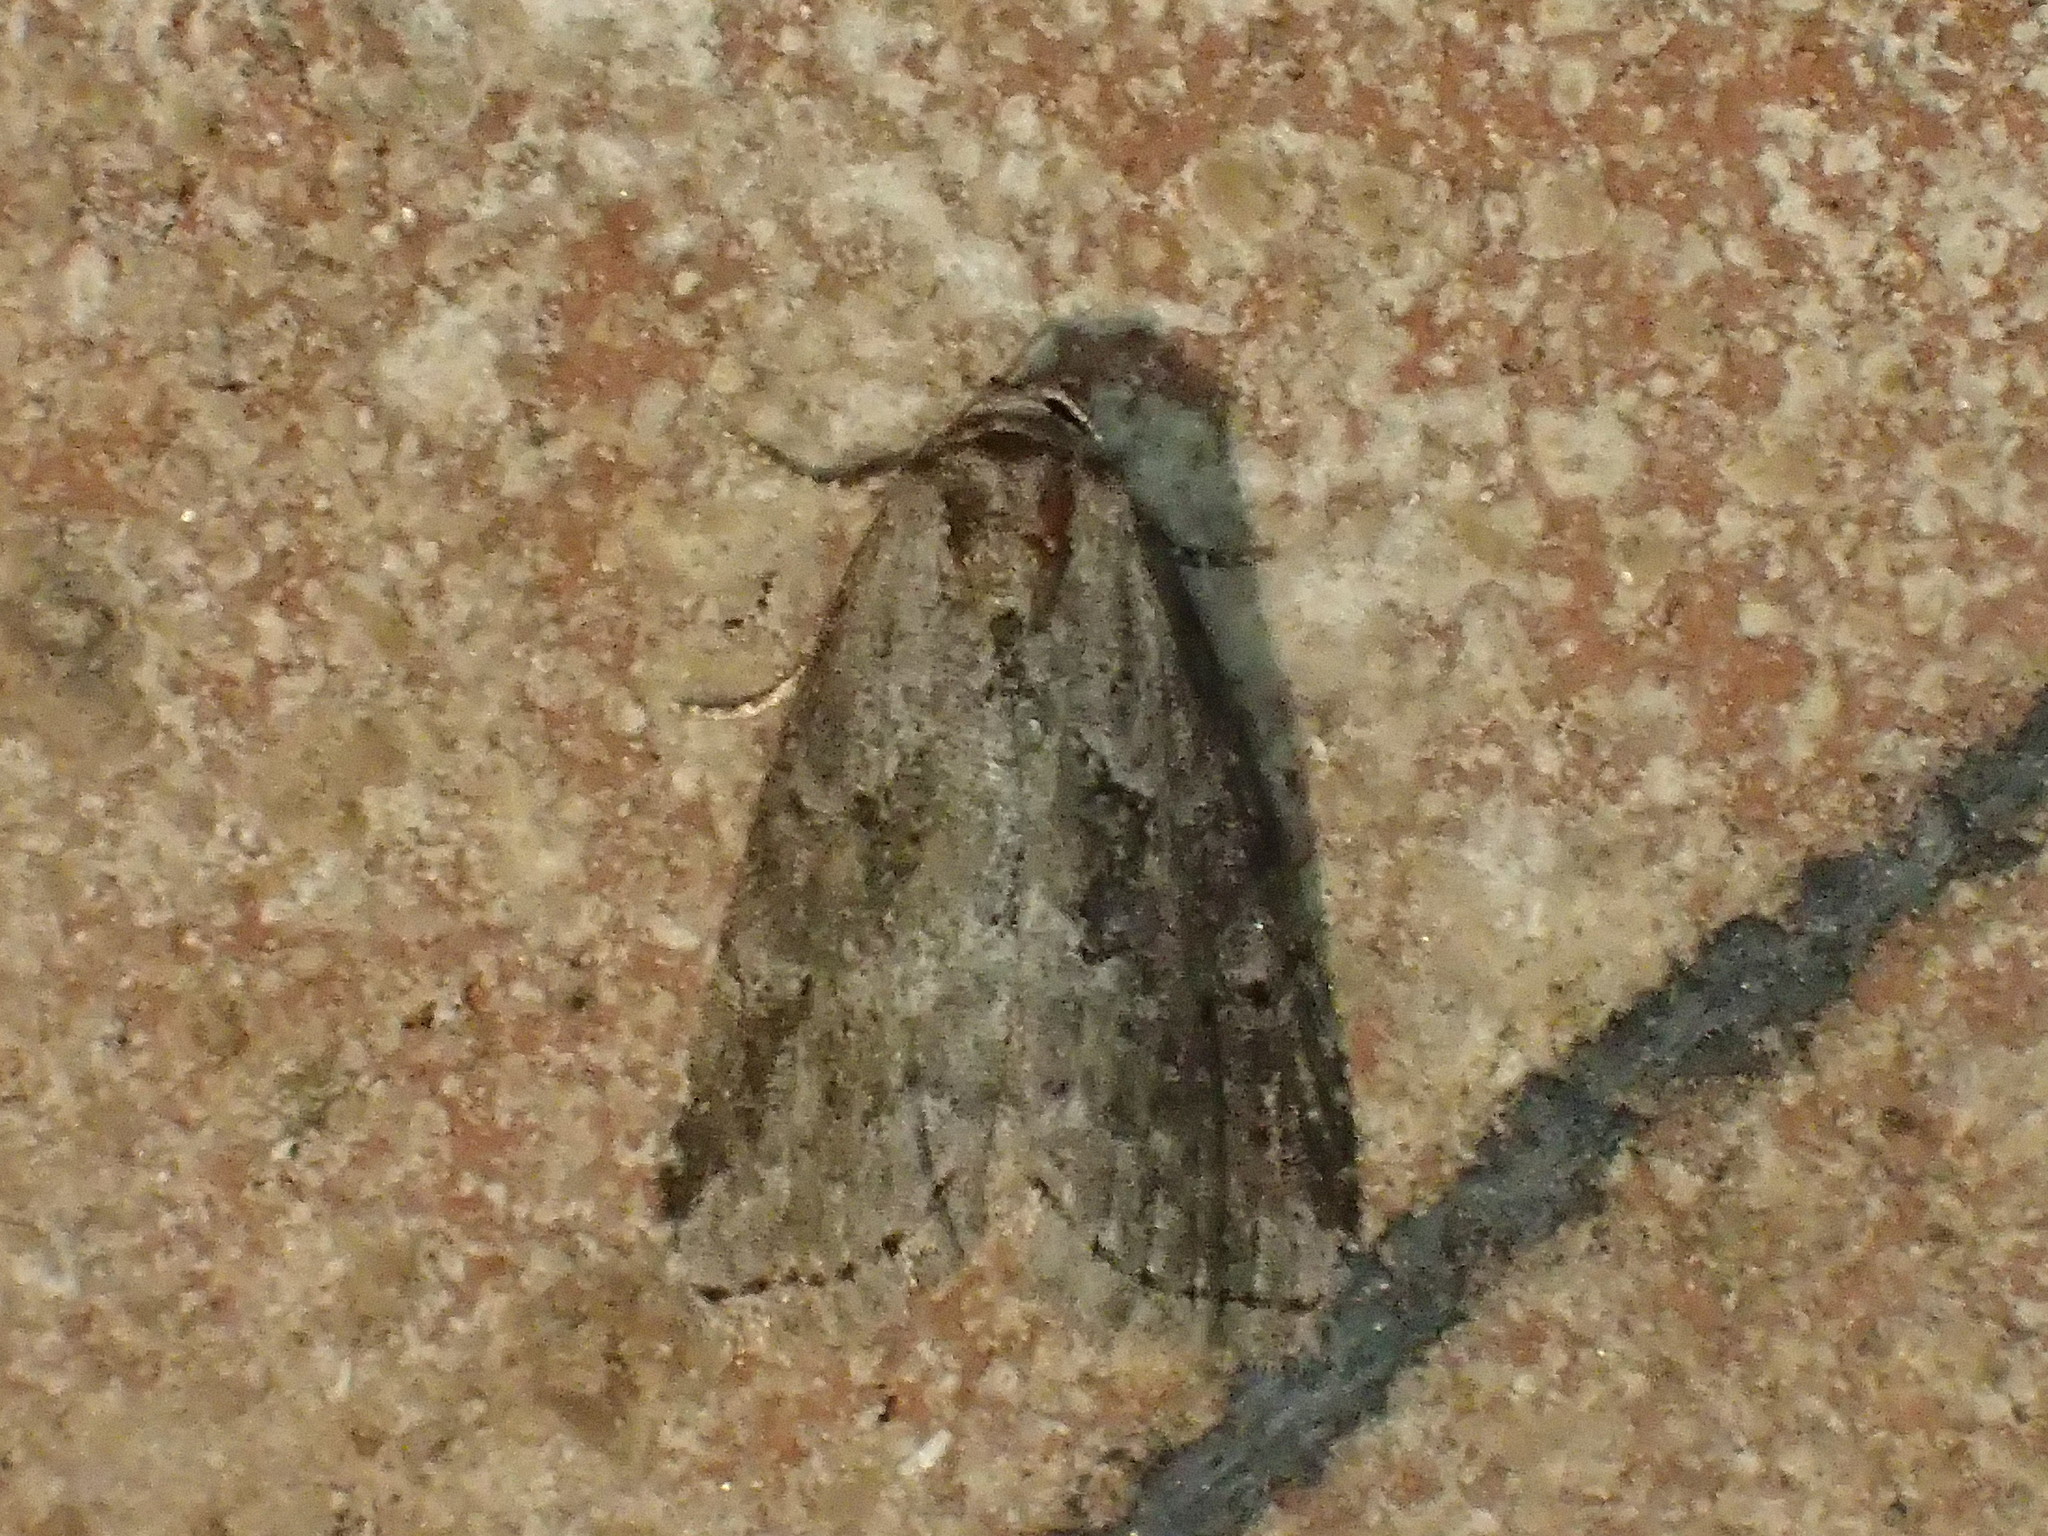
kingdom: Animalia
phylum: Arthropoda
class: Insecta
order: Lepidoptera
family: Erebidae
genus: Hyperstrotia
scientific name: Hyperstrotia nana
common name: White-lined graylet
